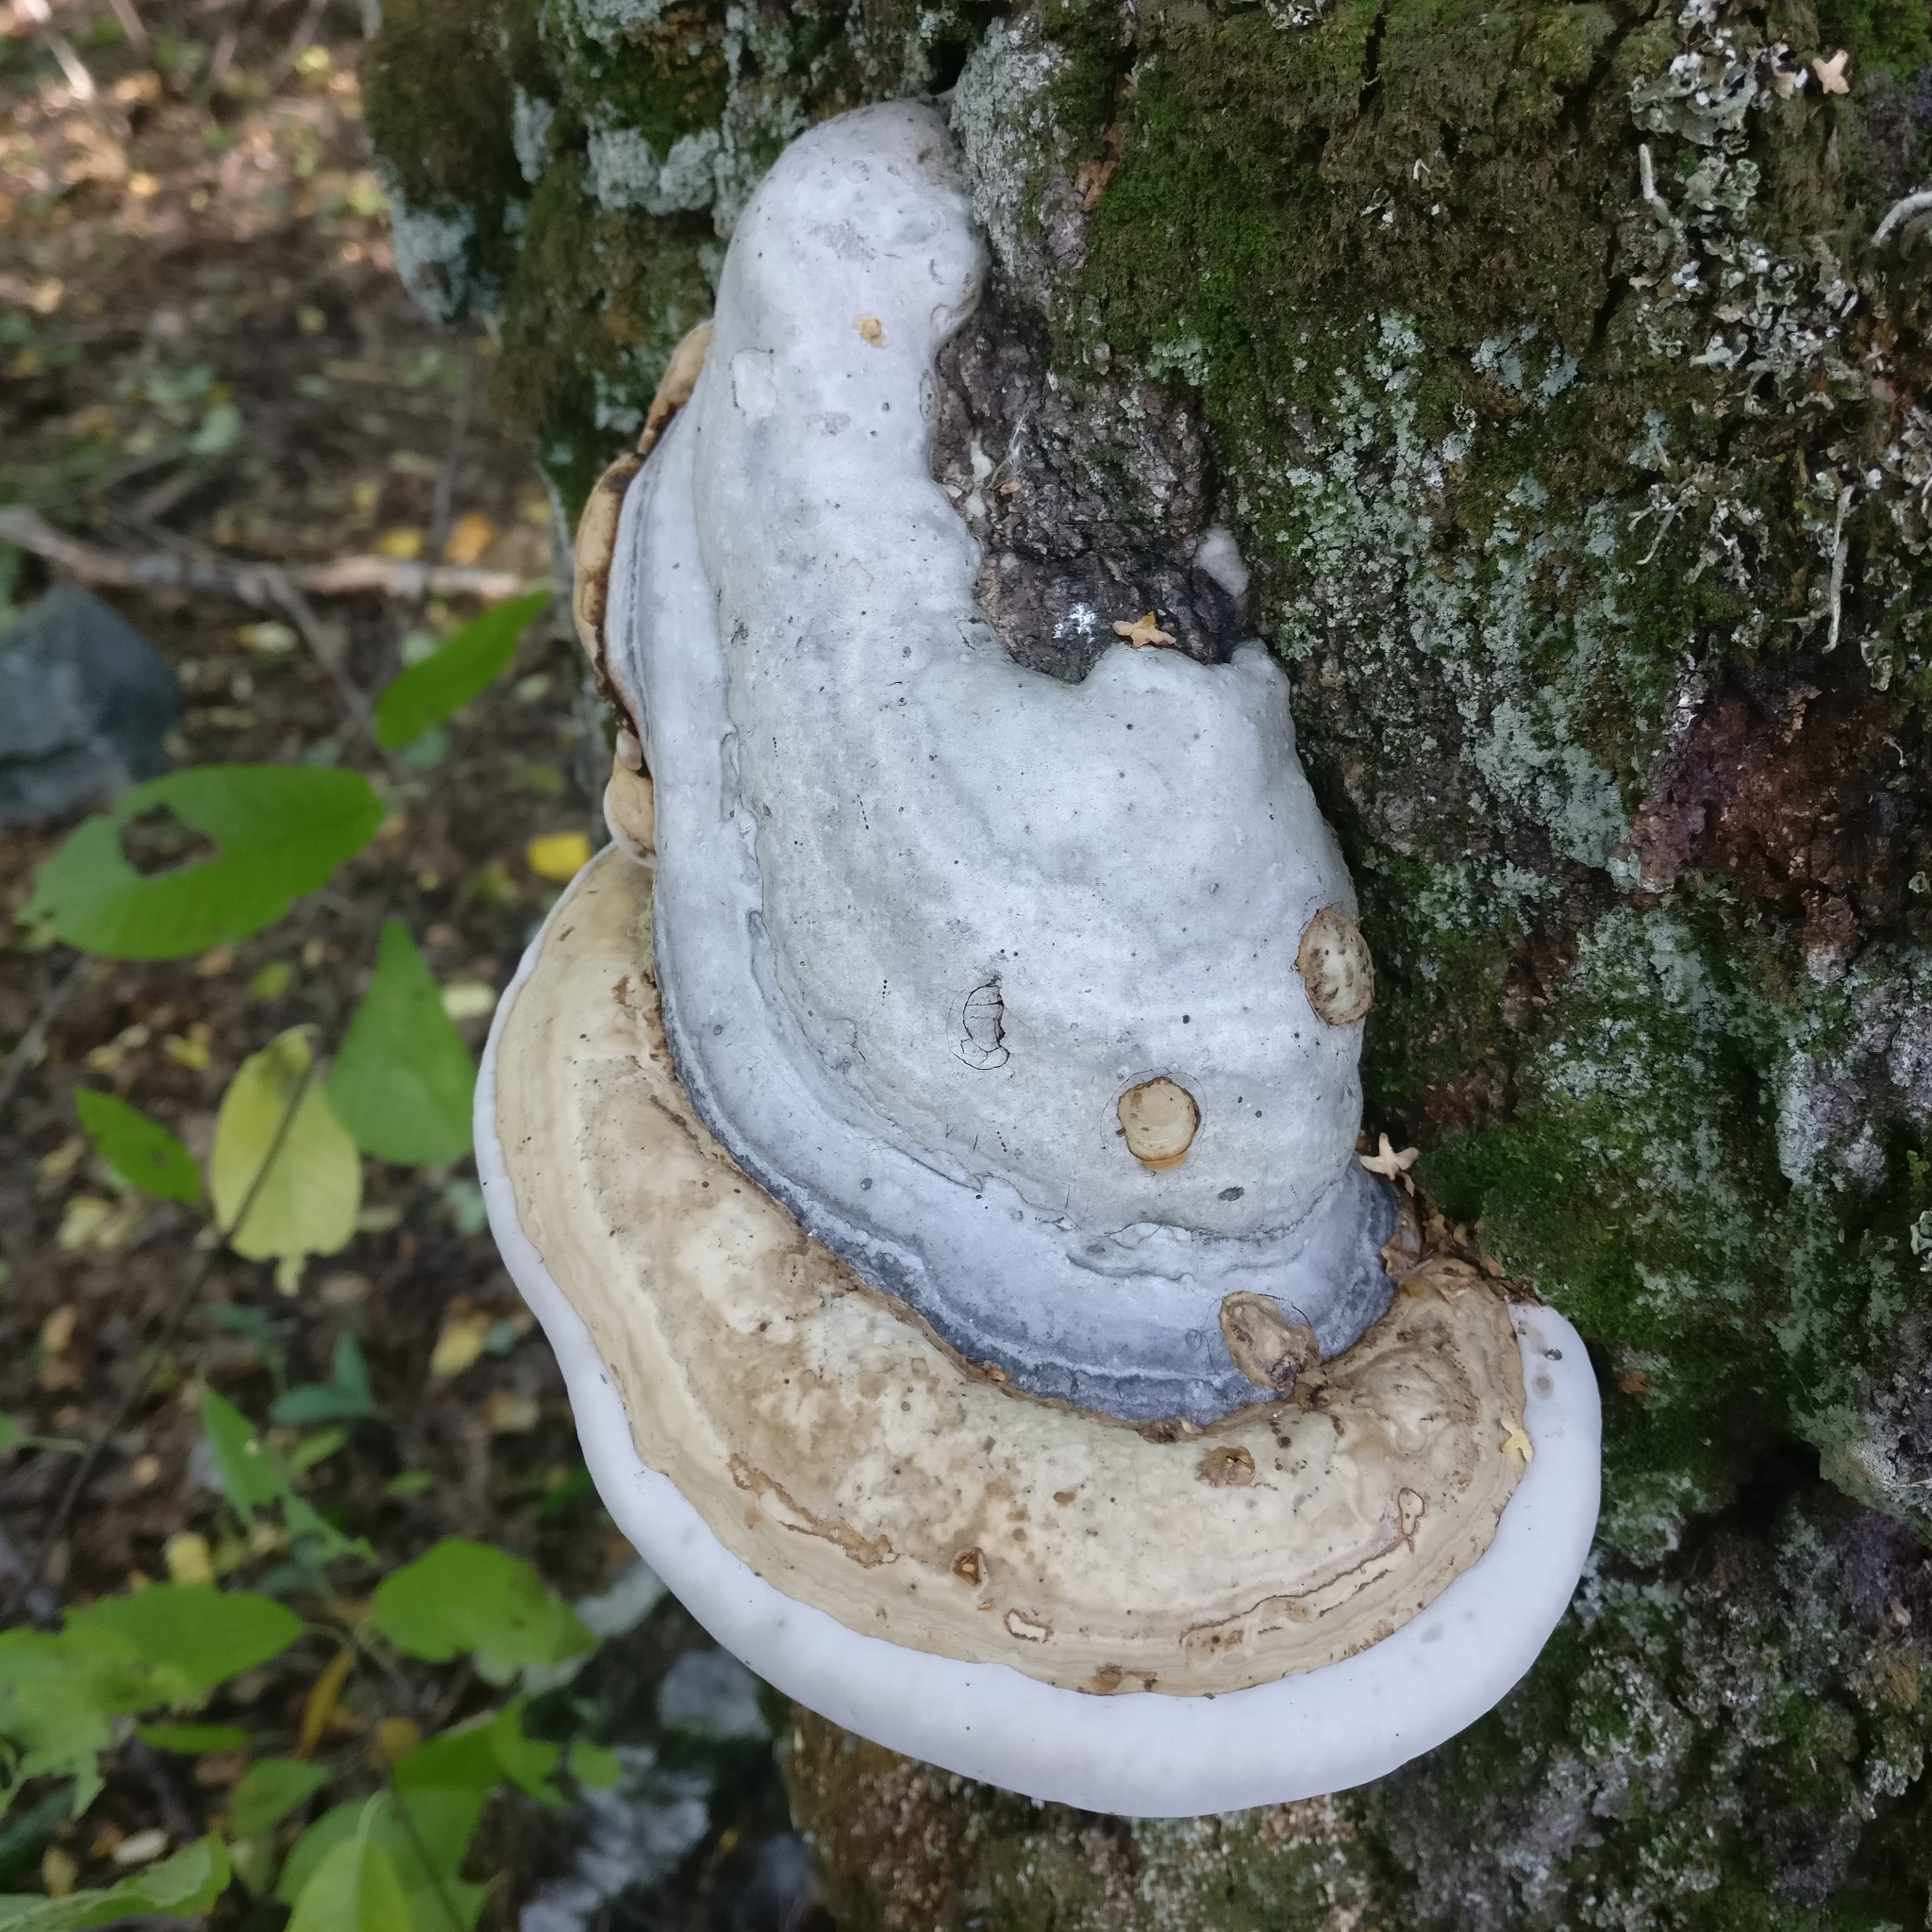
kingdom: Fungi
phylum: Basidiomycota
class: Agaricomycetes
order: Polyporales
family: Polyporaceae
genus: Fomes
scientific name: Fomes fomentarius
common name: Hoof fungus
